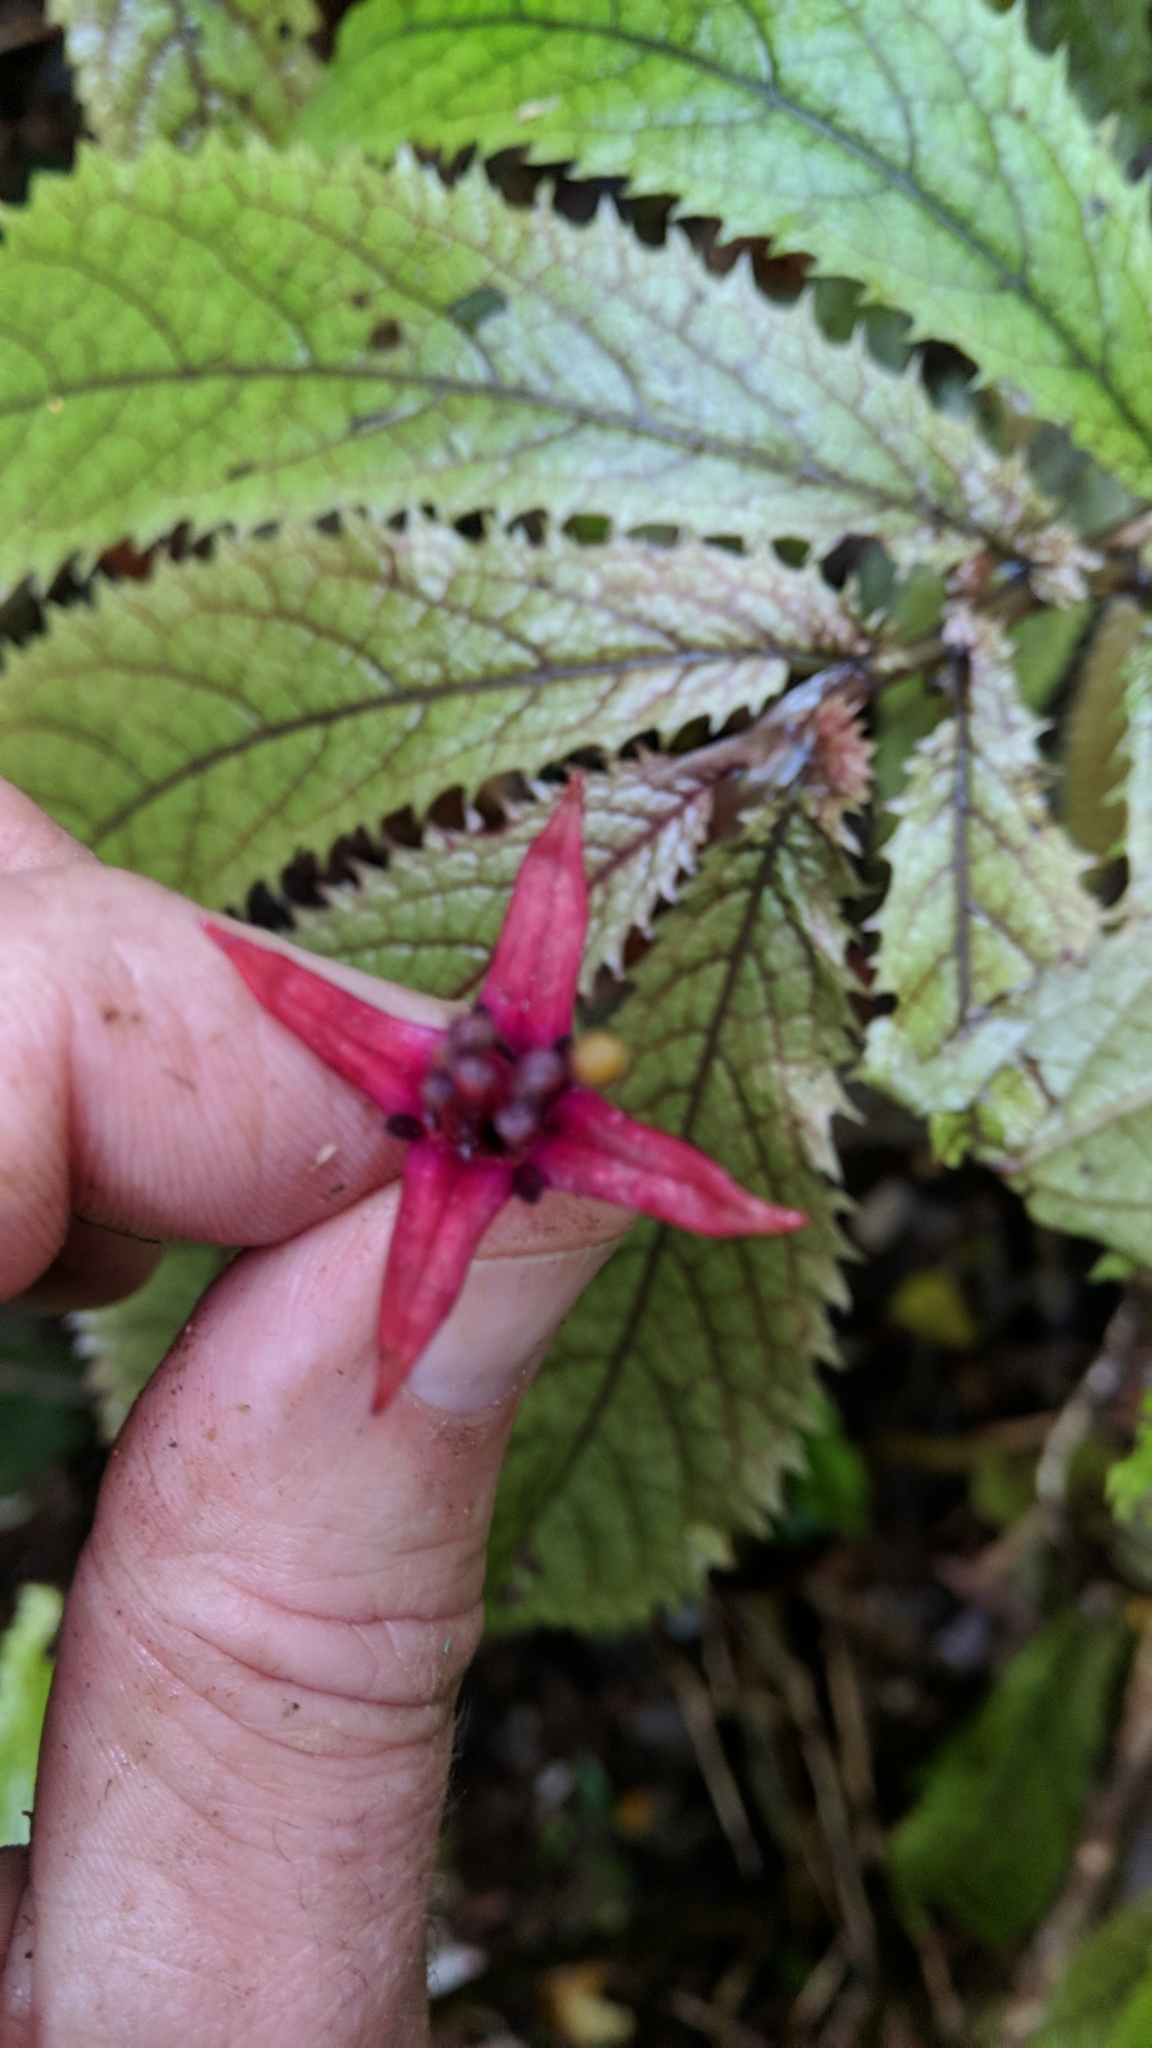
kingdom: Plantae
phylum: Tracheophyta
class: Magnoliopsida
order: Myrtales
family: Onagraceae
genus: Fuchsia
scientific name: Fuchsia excorticata
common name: Tree fuchsia
